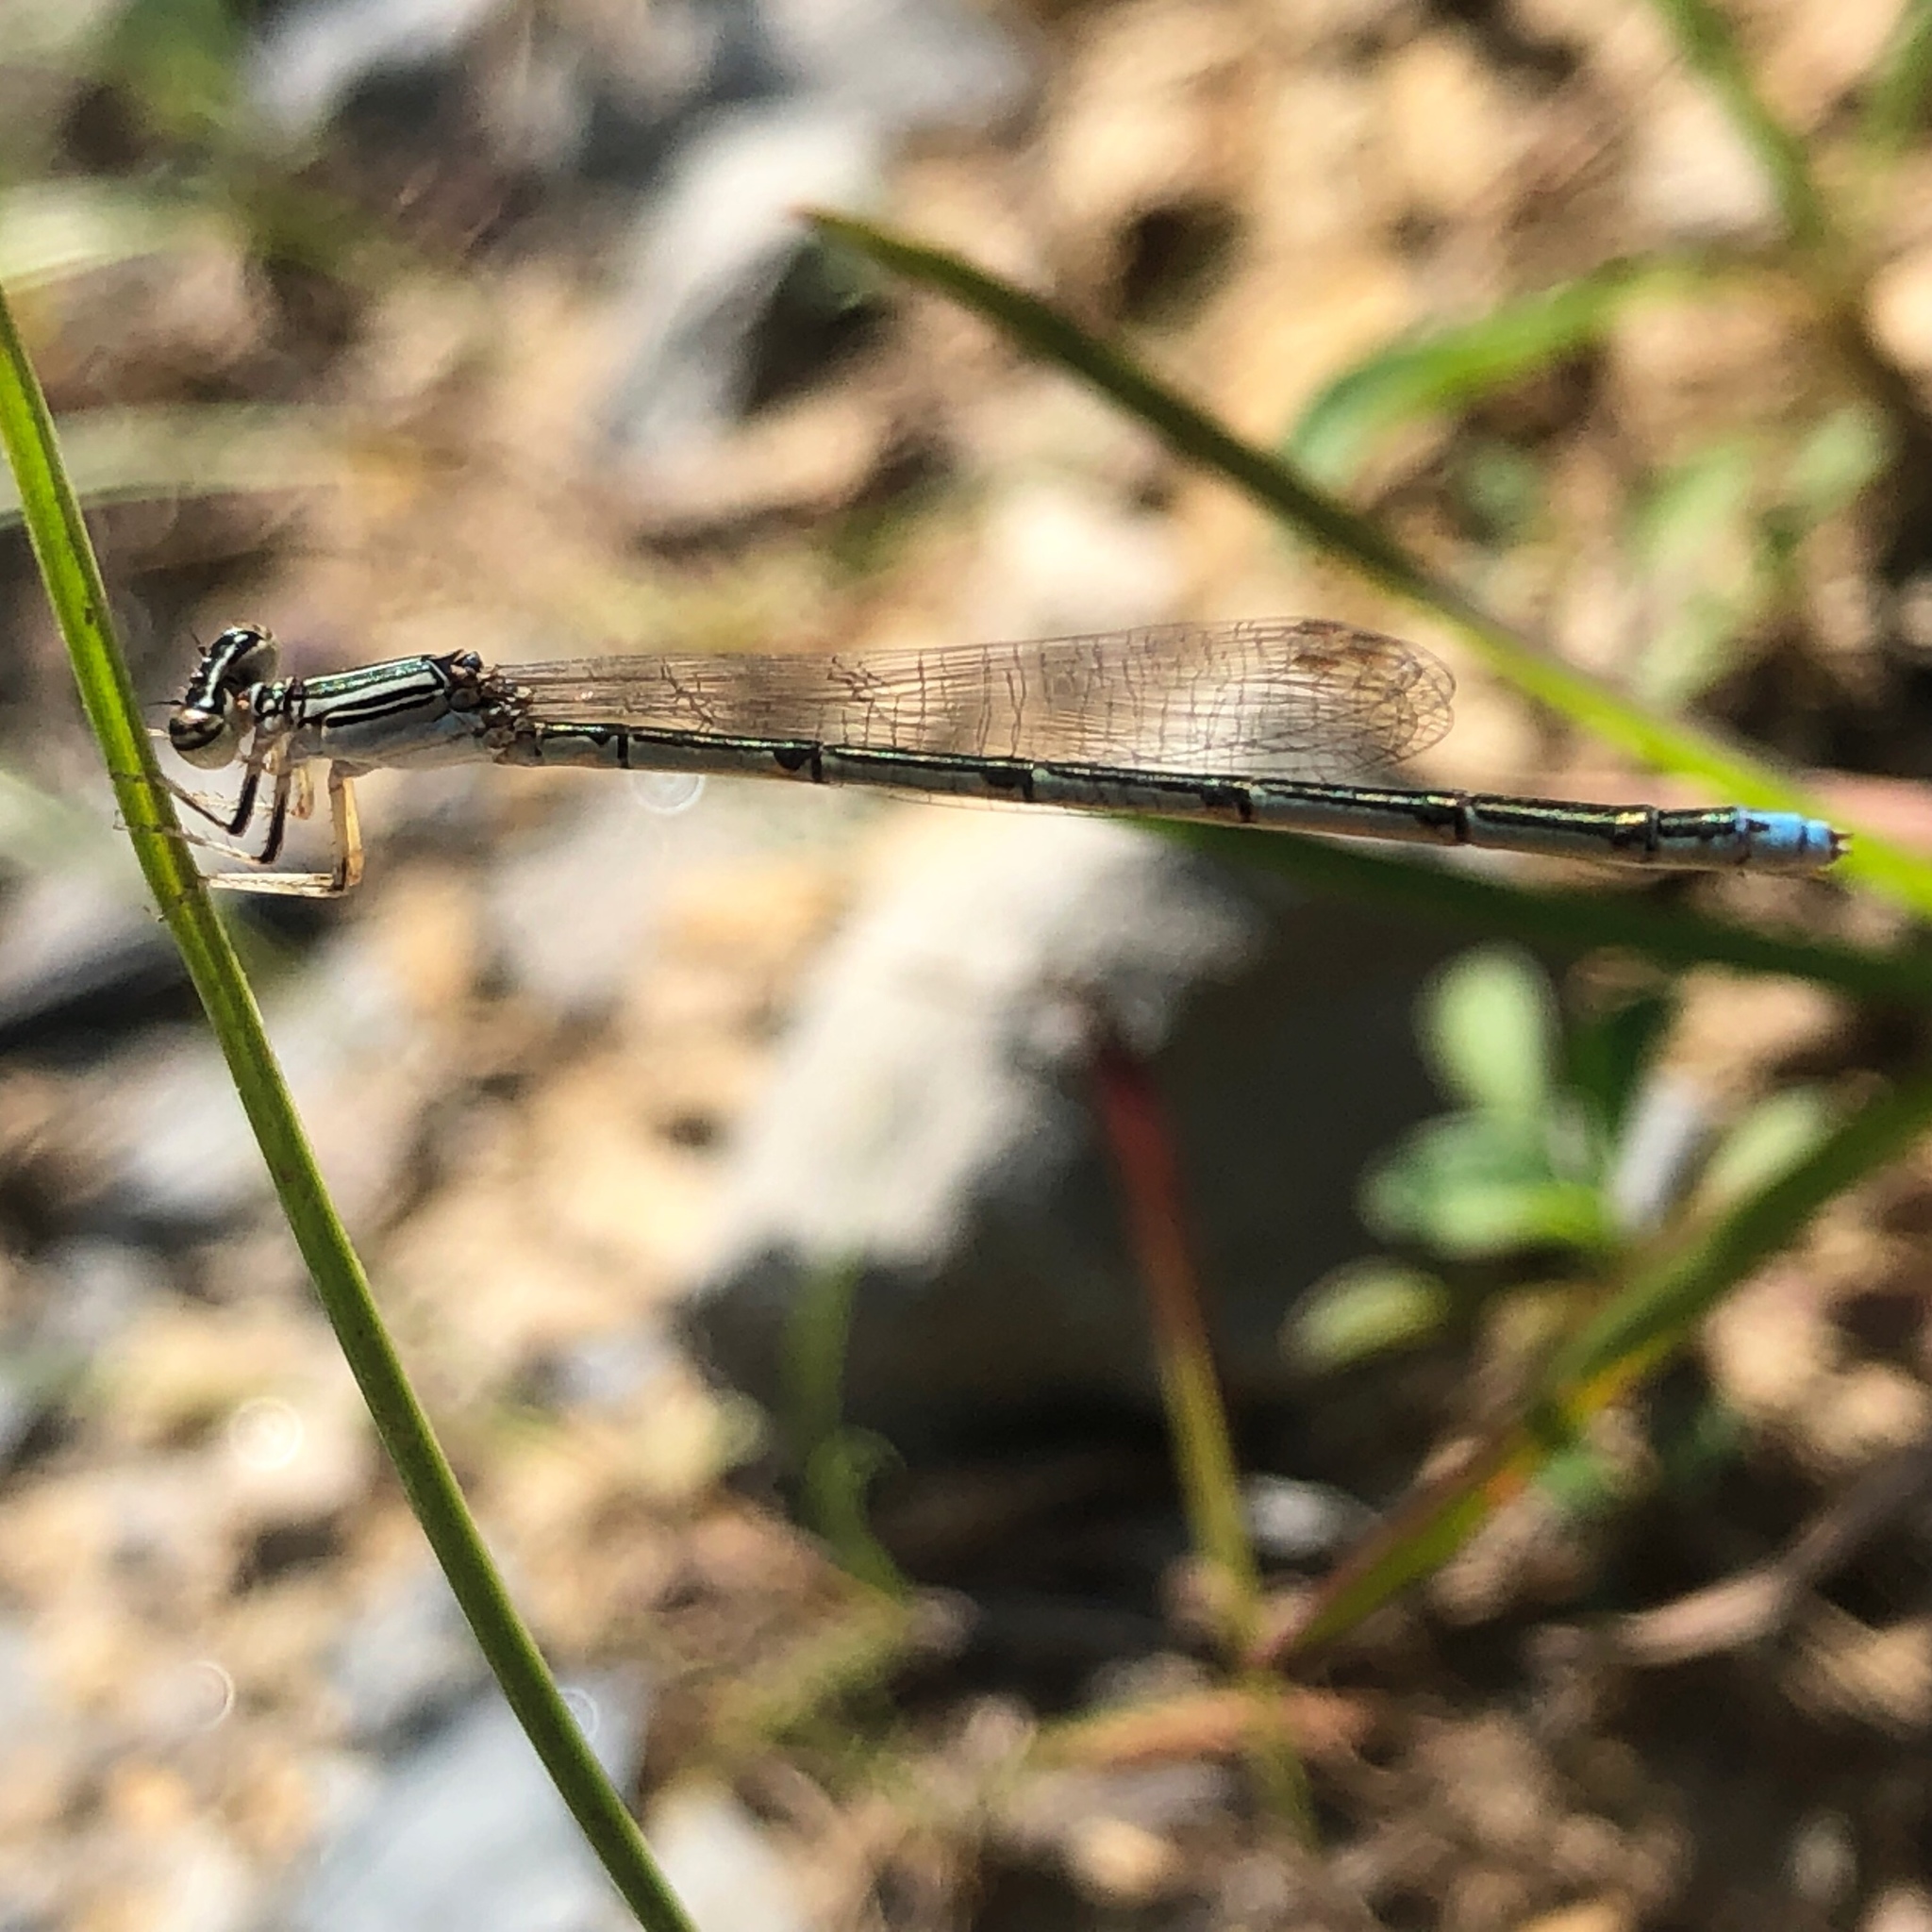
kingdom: Animalia
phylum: Arthropoda
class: Insecta
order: Odonata
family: Coenagrionidae
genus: Enallagma
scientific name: Enallagma basidens
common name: Double-striped bluet
